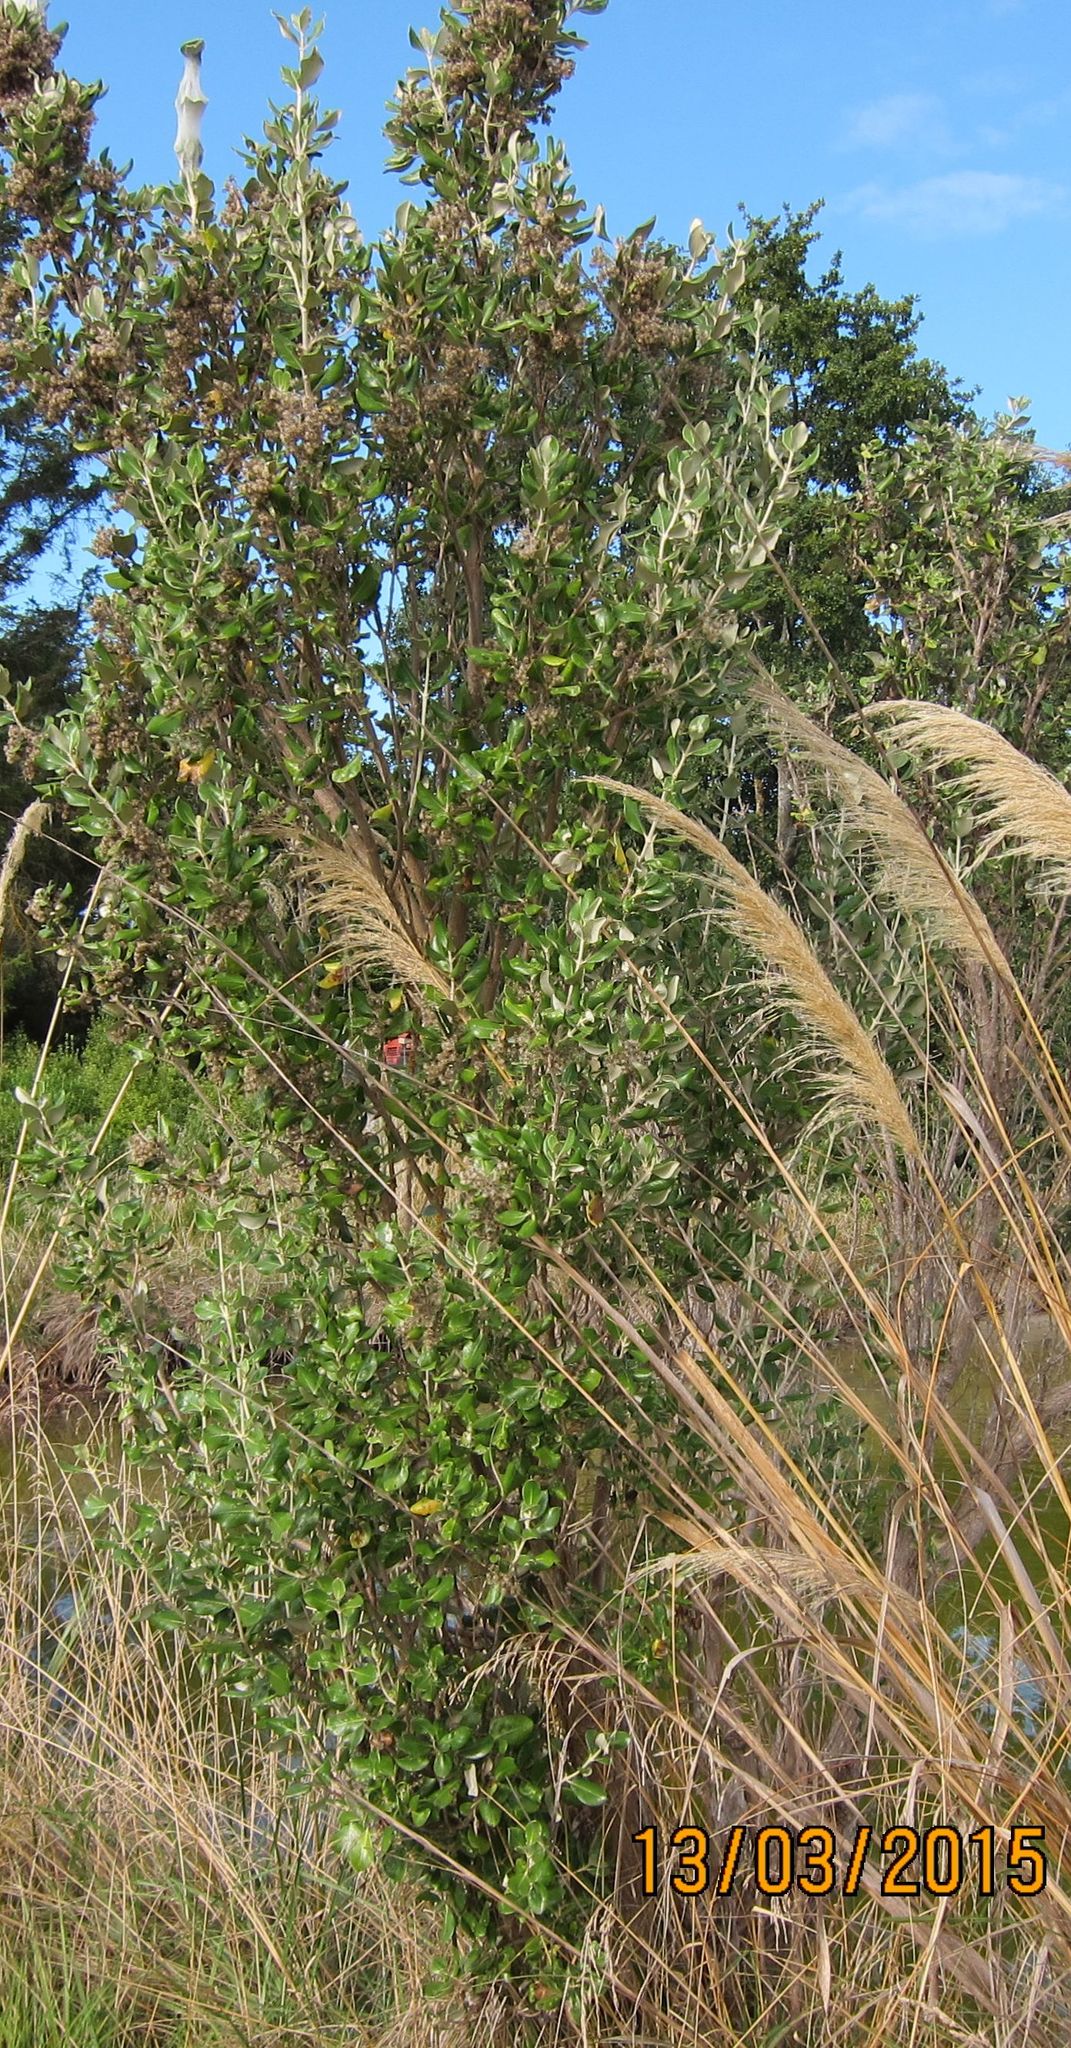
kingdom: Plantae
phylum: Tracheophyta
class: Magnoliopsida
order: Asterales
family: Asteraceae
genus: Olearia
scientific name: Olearia traversiorum
